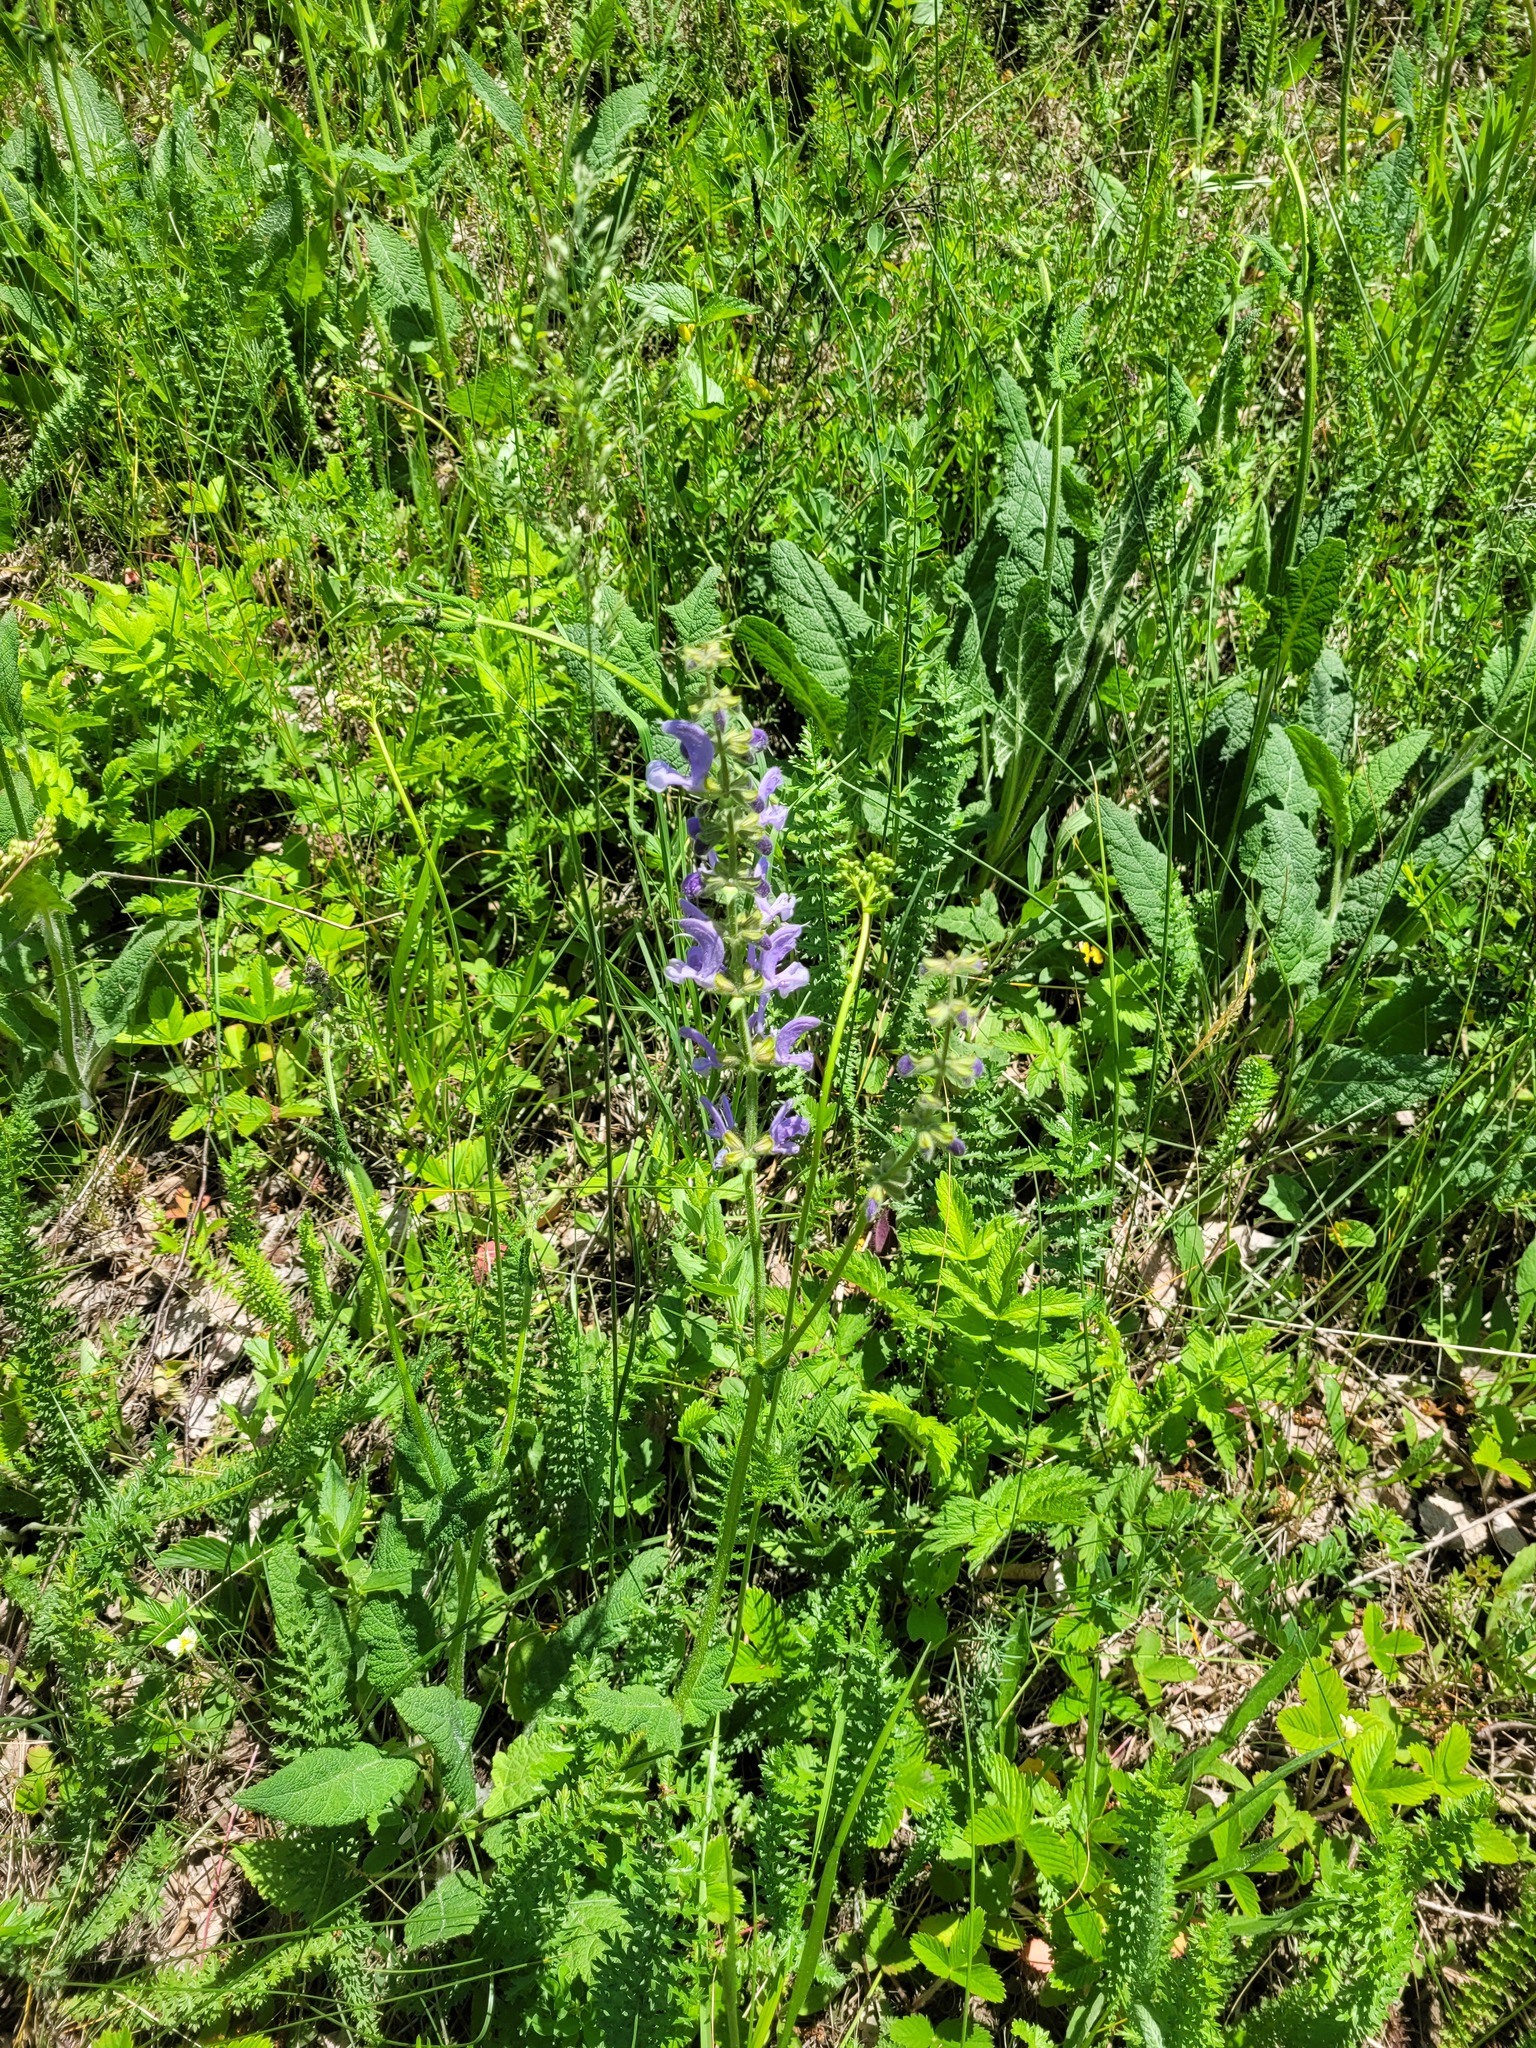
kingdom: Plantae
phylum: Tracheophyta
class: Magnoliopsida
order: Lamiales
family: Lamiaceae
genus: Salvia
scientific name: Salvia pratensis
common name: Meadow sage
